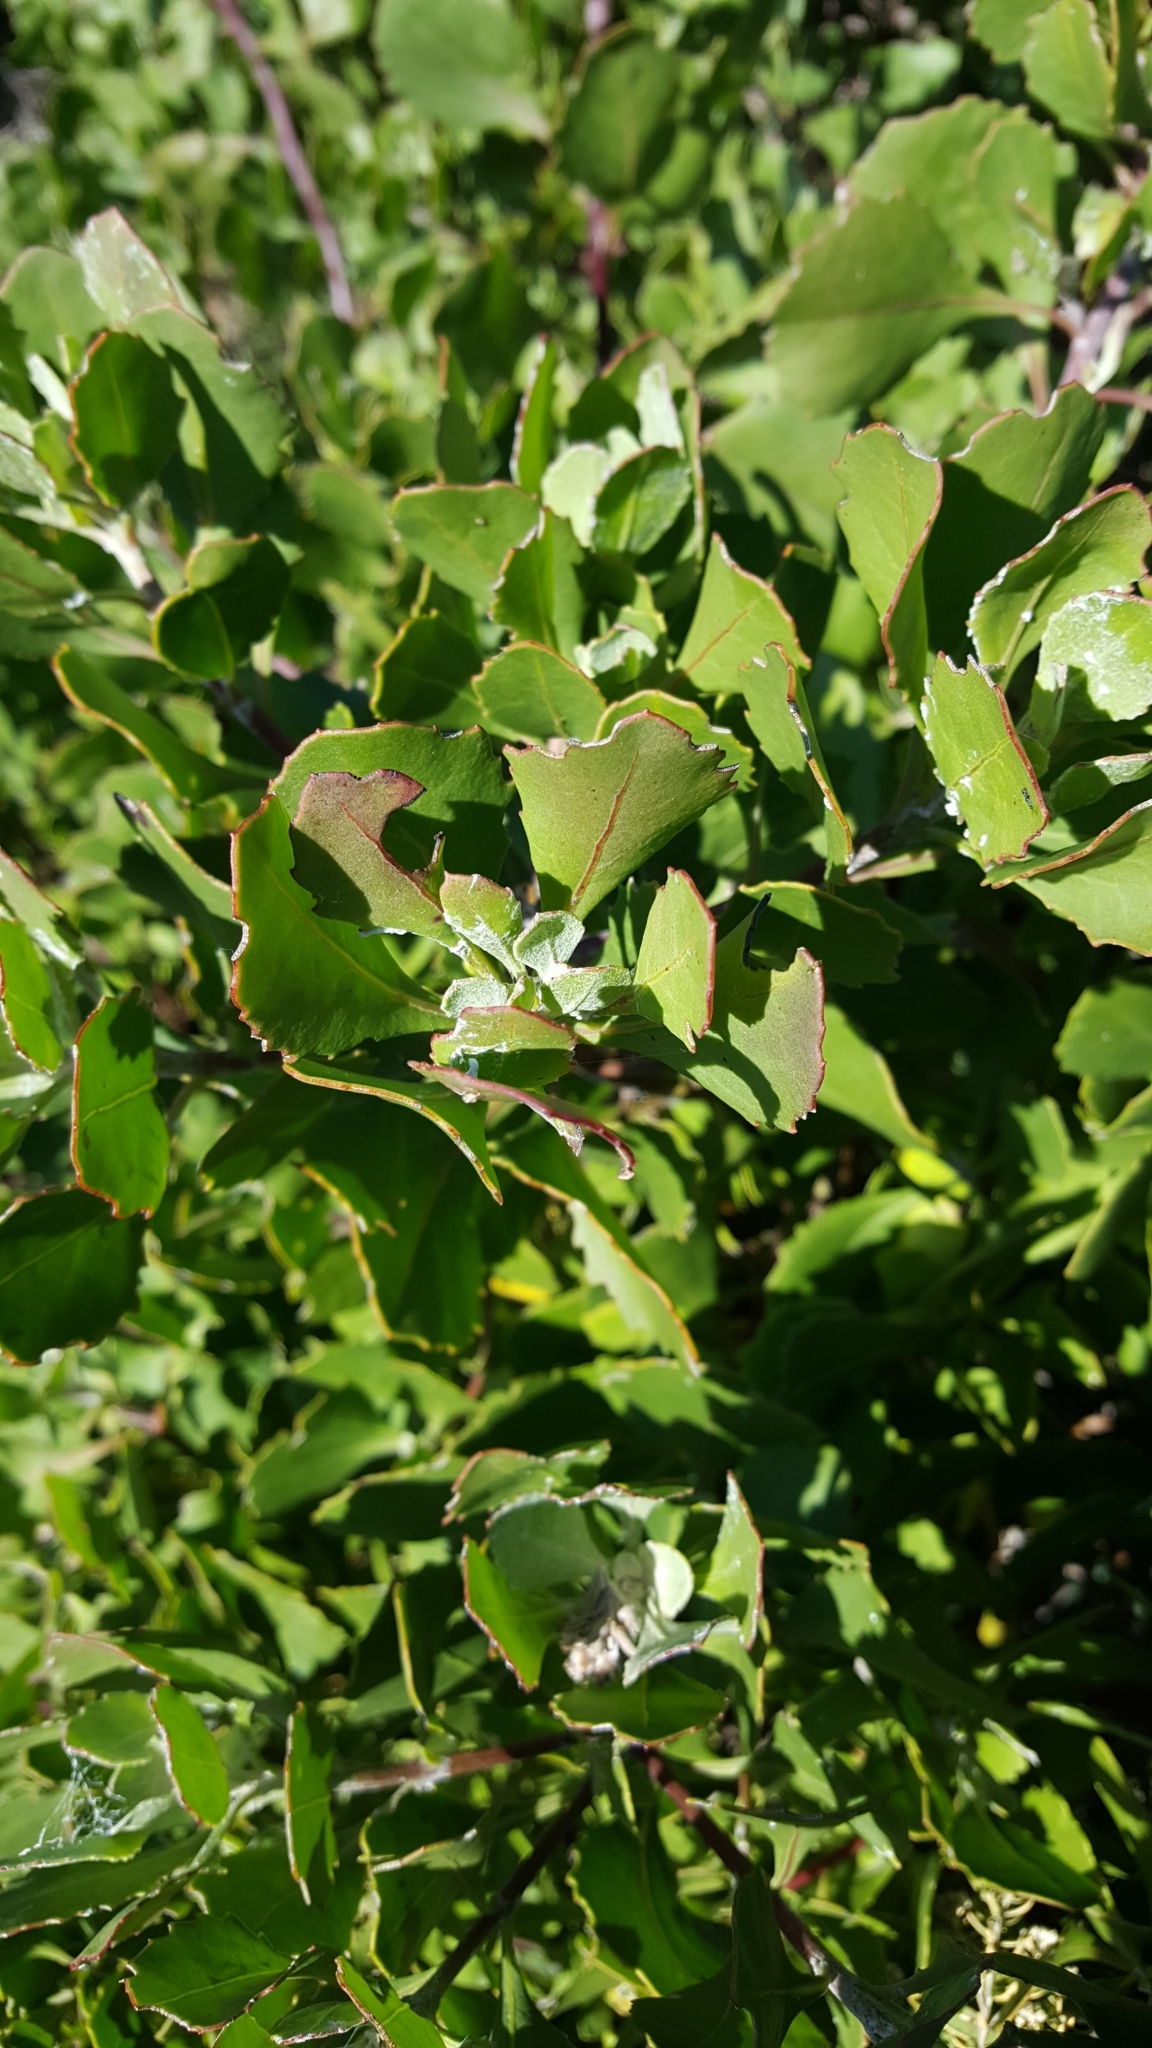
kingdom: Plantae
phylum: Tracheophyta
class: Magnoliopsida
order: Asterales
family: Asteraceae
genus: Osteospermum
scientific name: Osteospermum moniliferum
